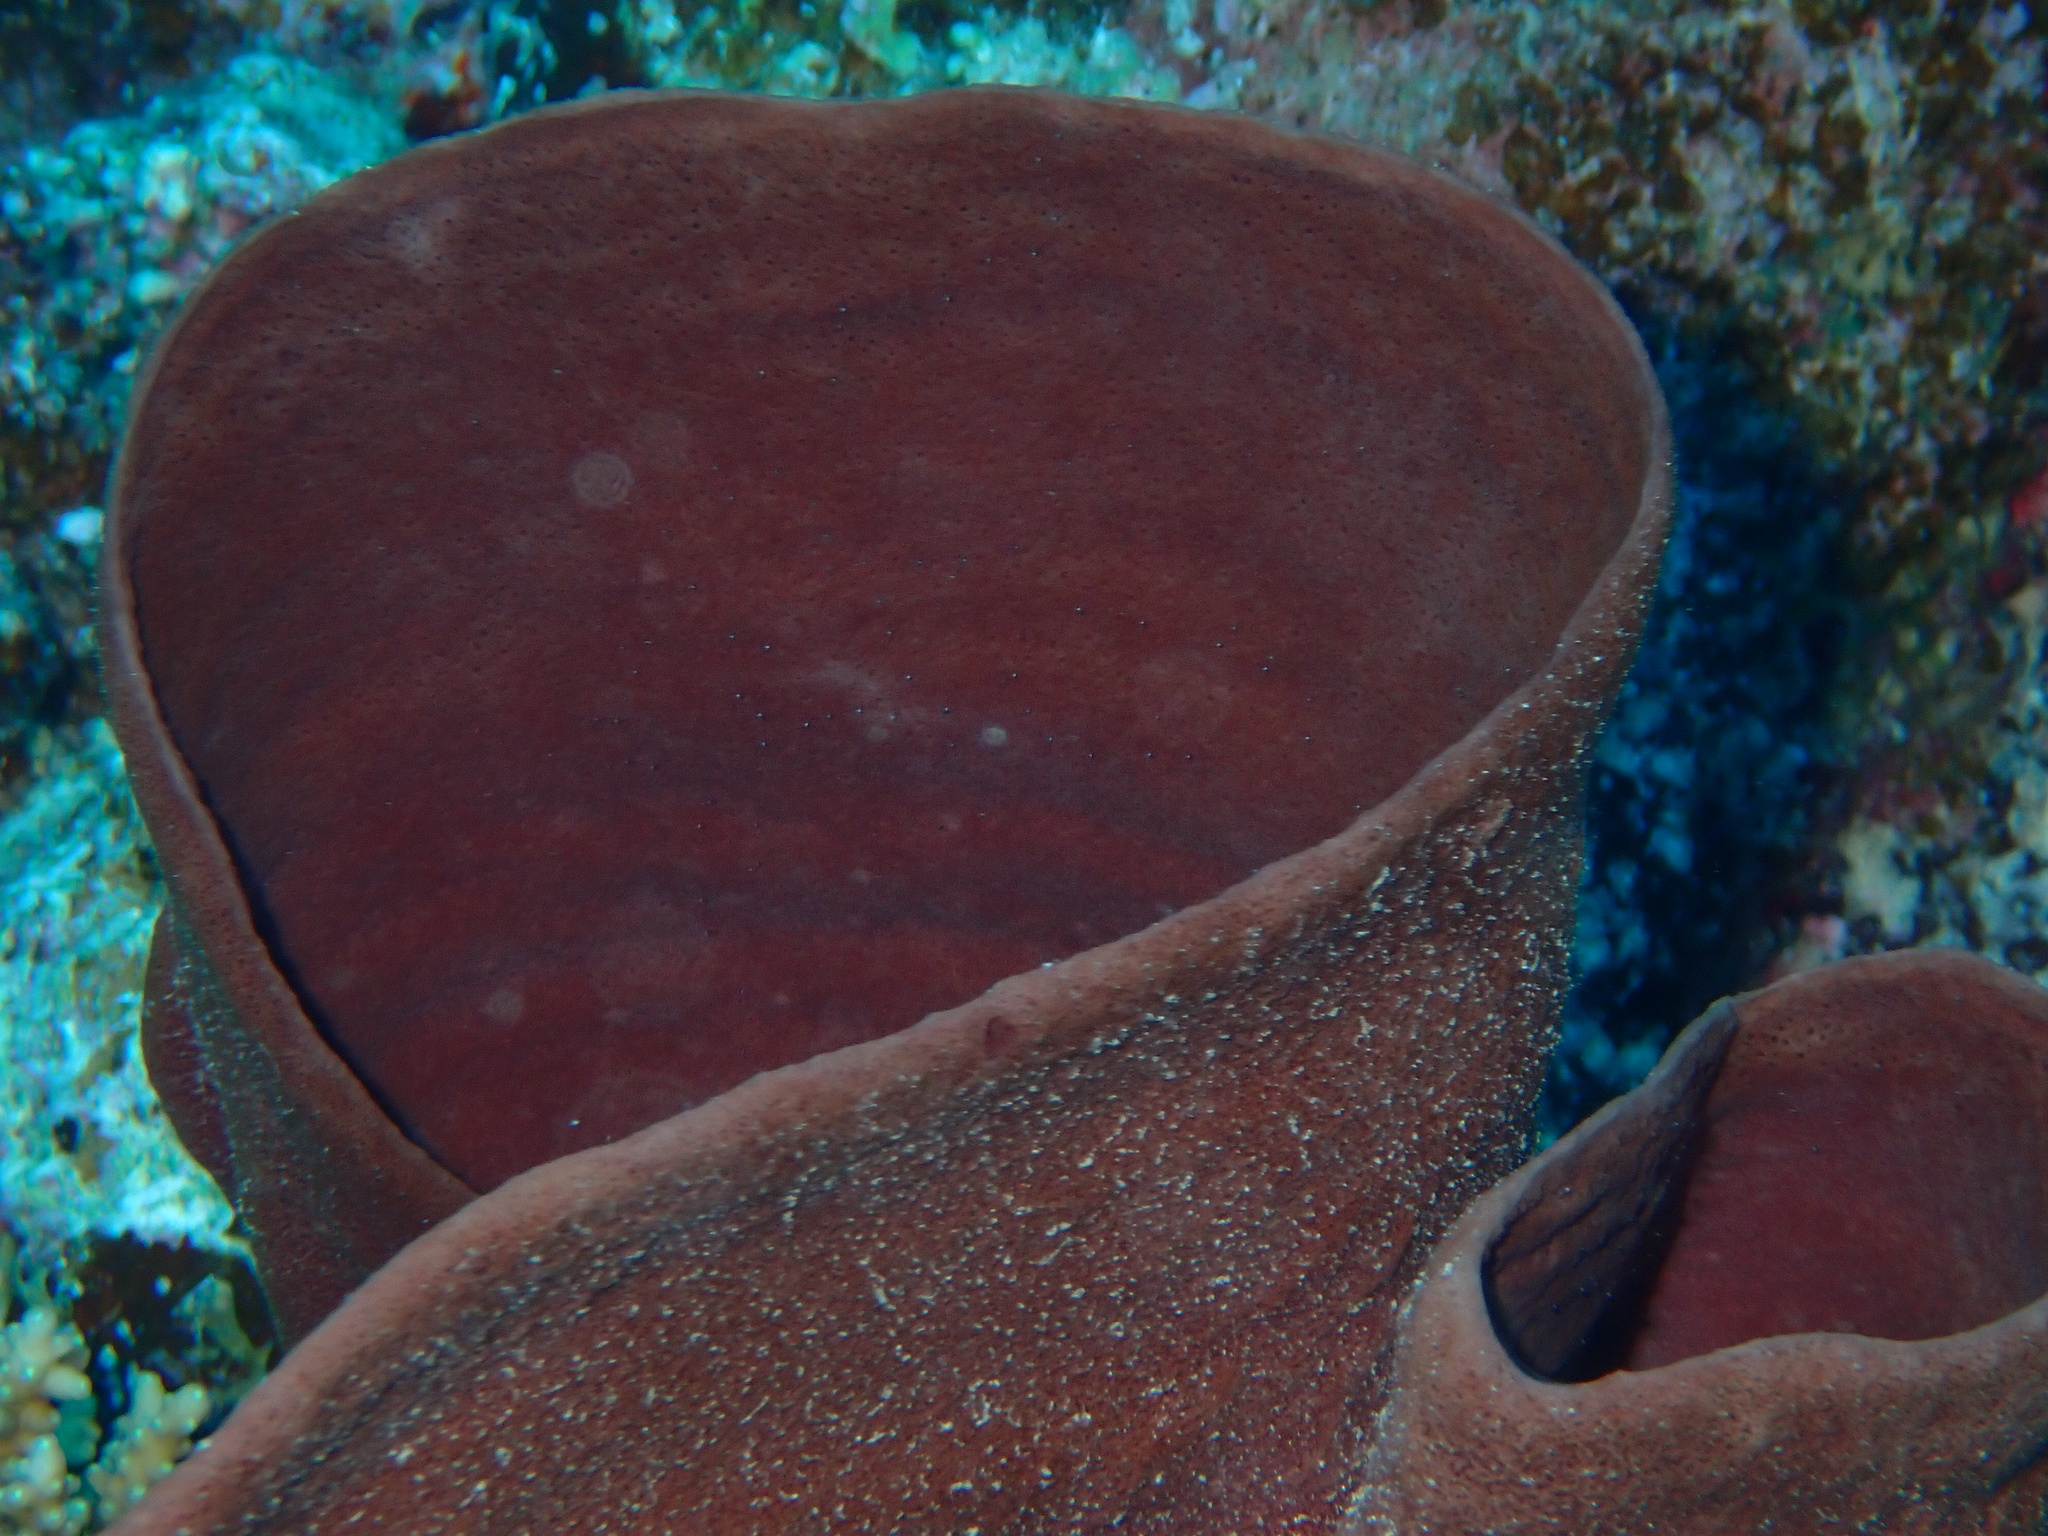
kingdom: Animalia
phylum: Porifera
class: Demospongiae
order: Haplosclerida
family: Callyspongiidae
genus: Callyspongia
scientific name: Callyspongia crassa
